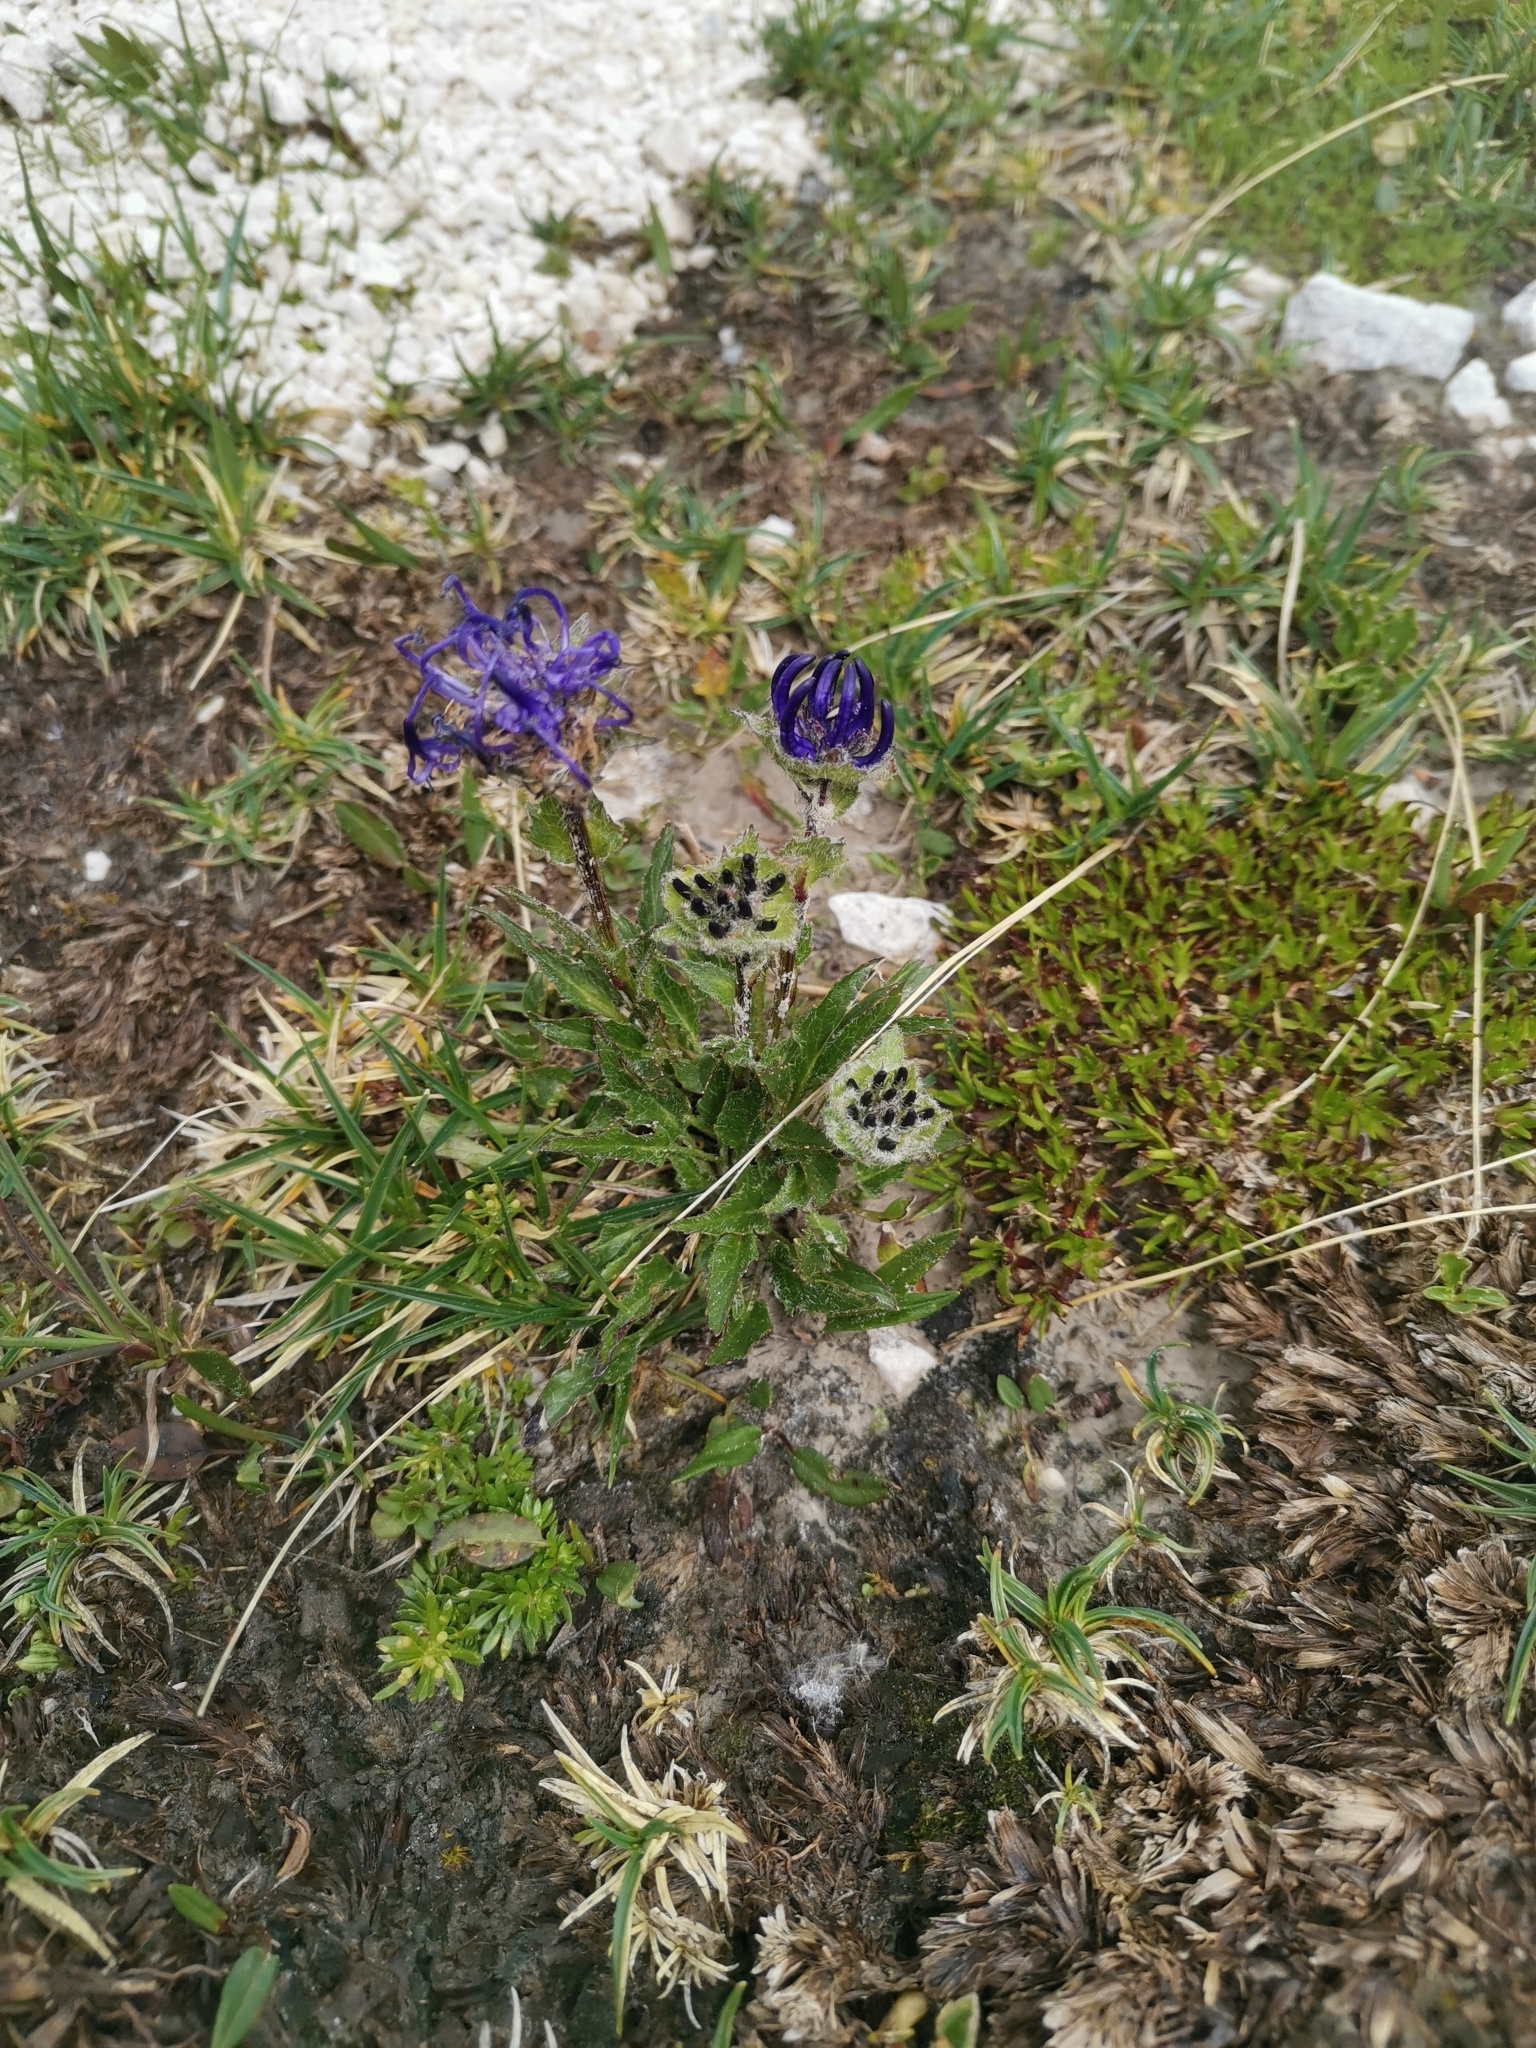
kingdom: Plantae
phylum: Tracheophyta
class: Magnoliopsida
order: Asterales
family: Campanulaceae
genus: Phyteuma
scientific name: Phyteuma sieberi
